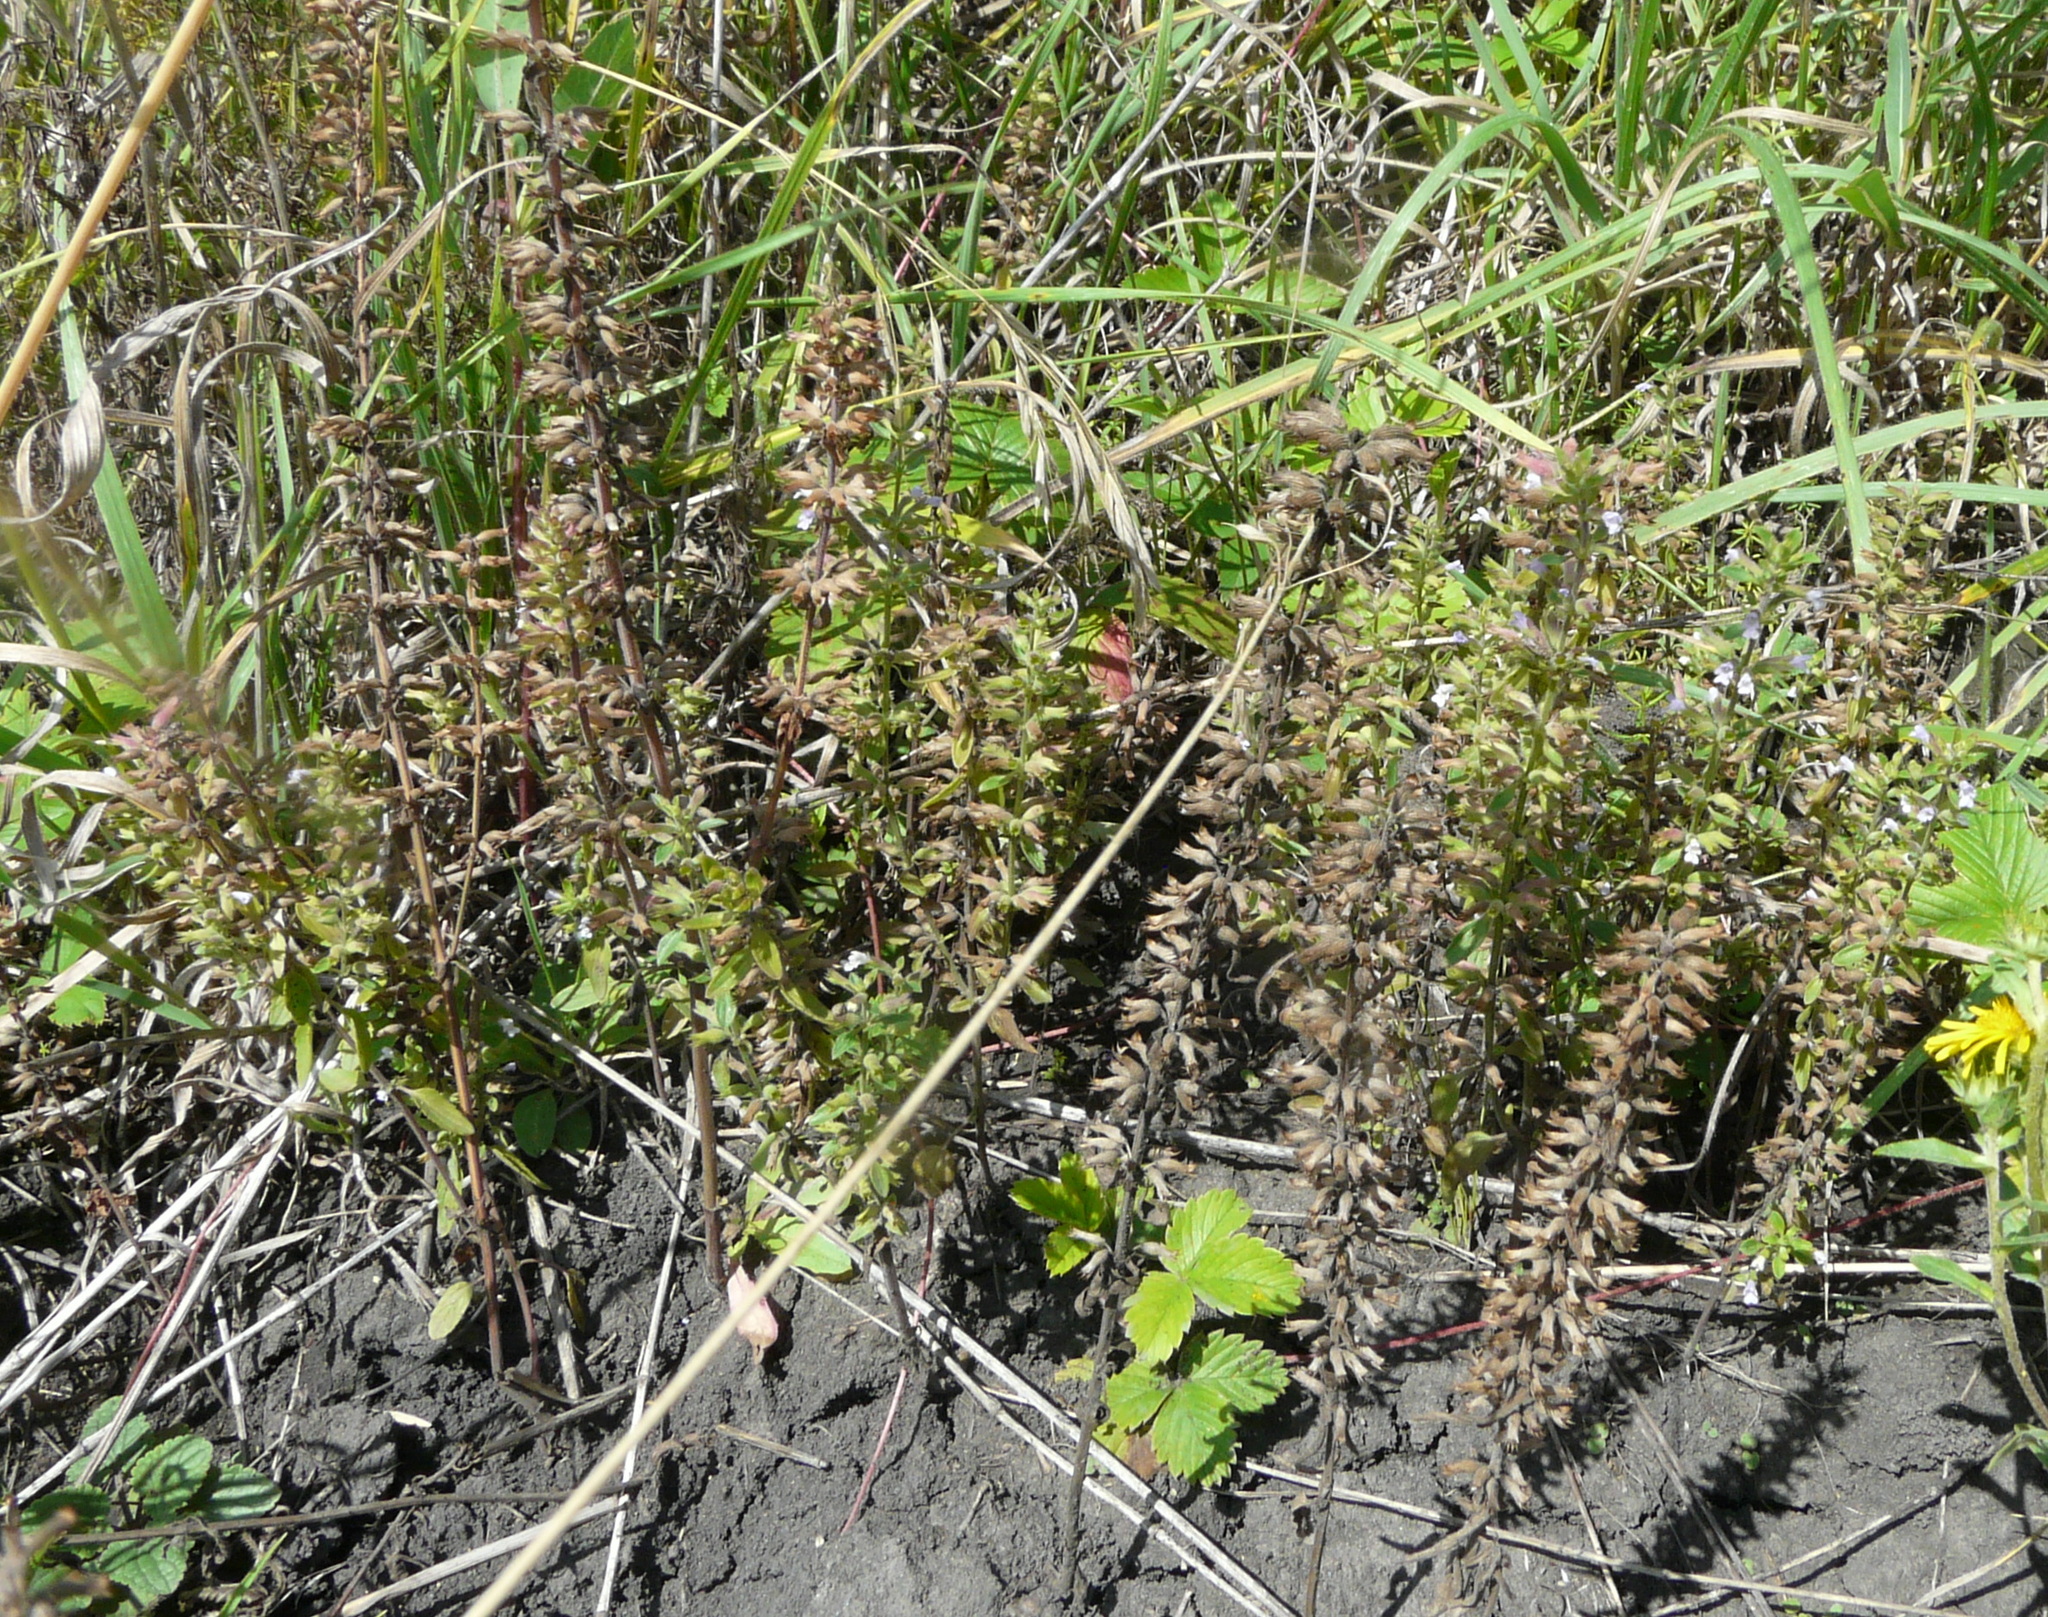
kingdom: Plantae
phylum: Tracheophyta
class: Magnoliopsida
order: Lamiales
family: Lamiaceae
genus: Dracocephalum
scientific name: Dracocephalum thymiflorum
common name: Thymeleaf dragonhead
